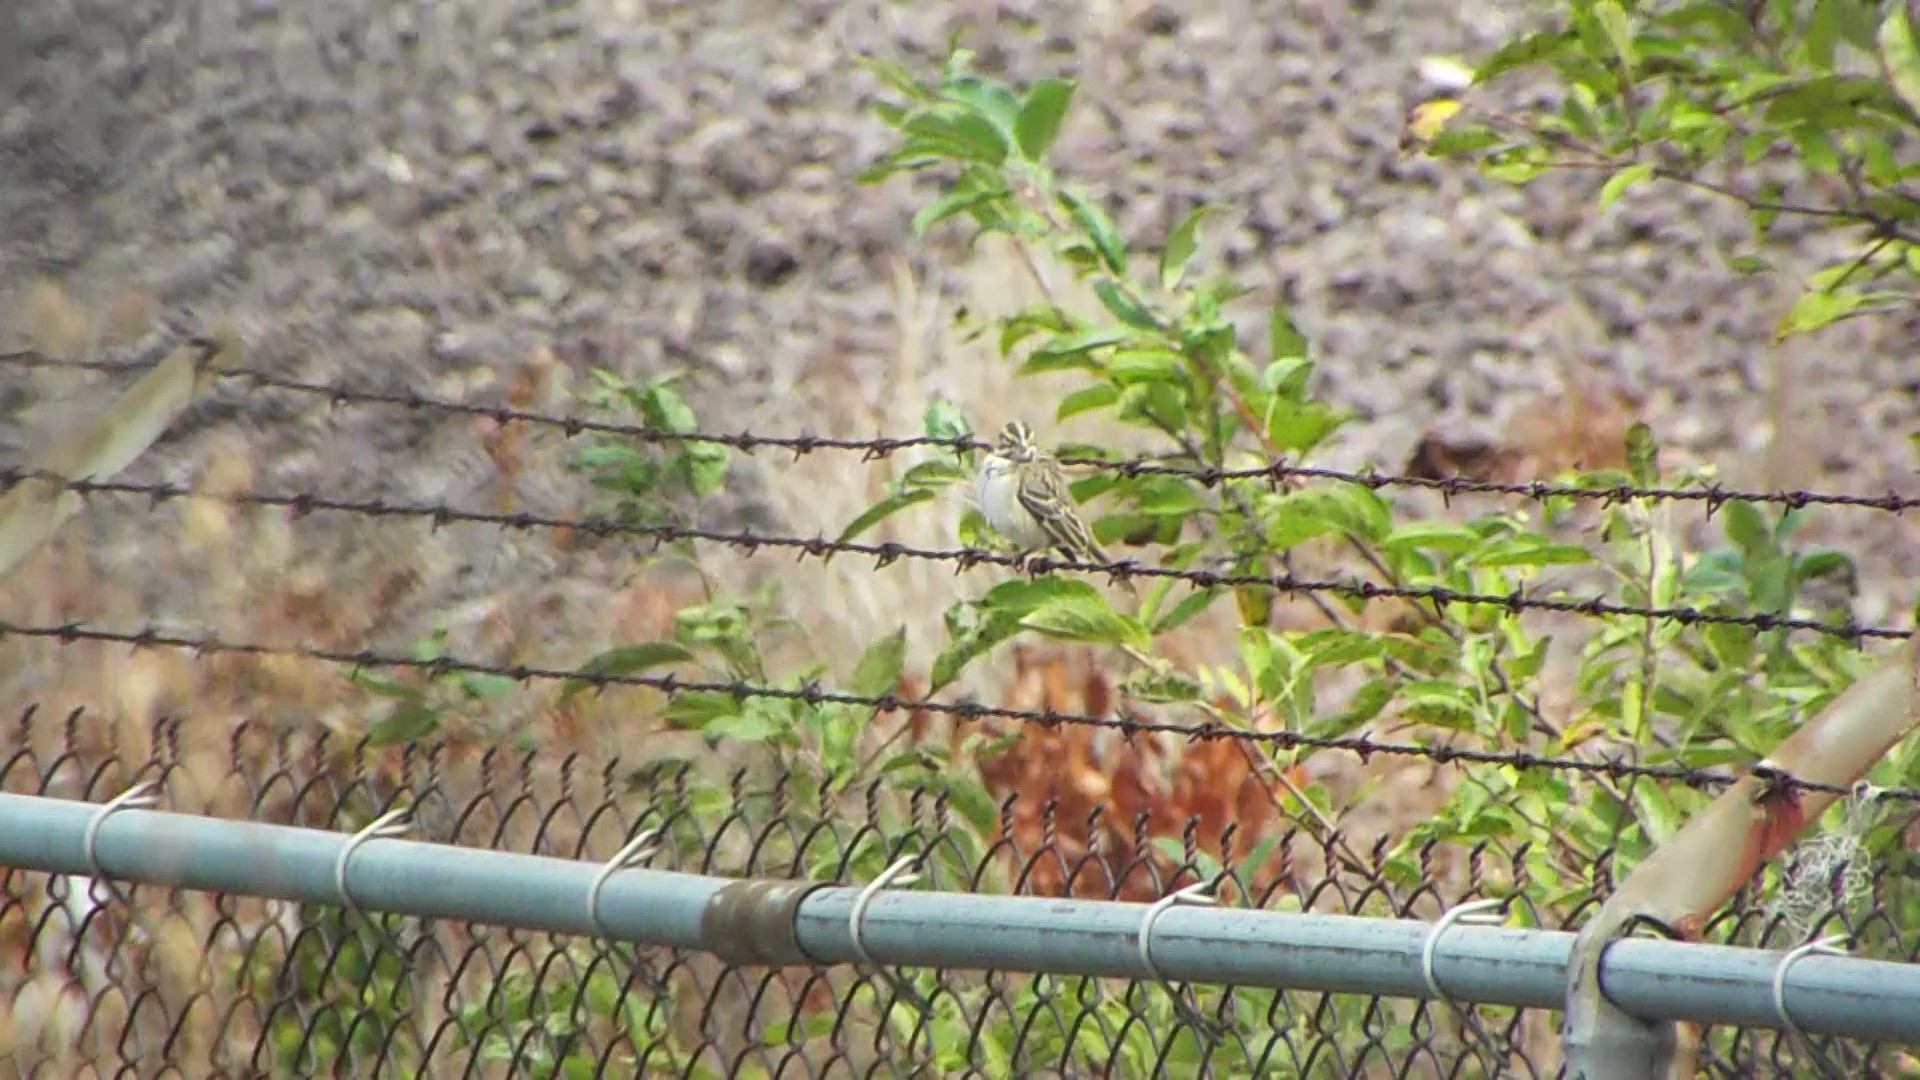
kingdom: Animalia
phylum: Chordata
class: Aves
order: Passeriformes
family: Passerellidae
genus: Chondestes
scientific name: Chondestes grammacus
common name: Lark sparrow
